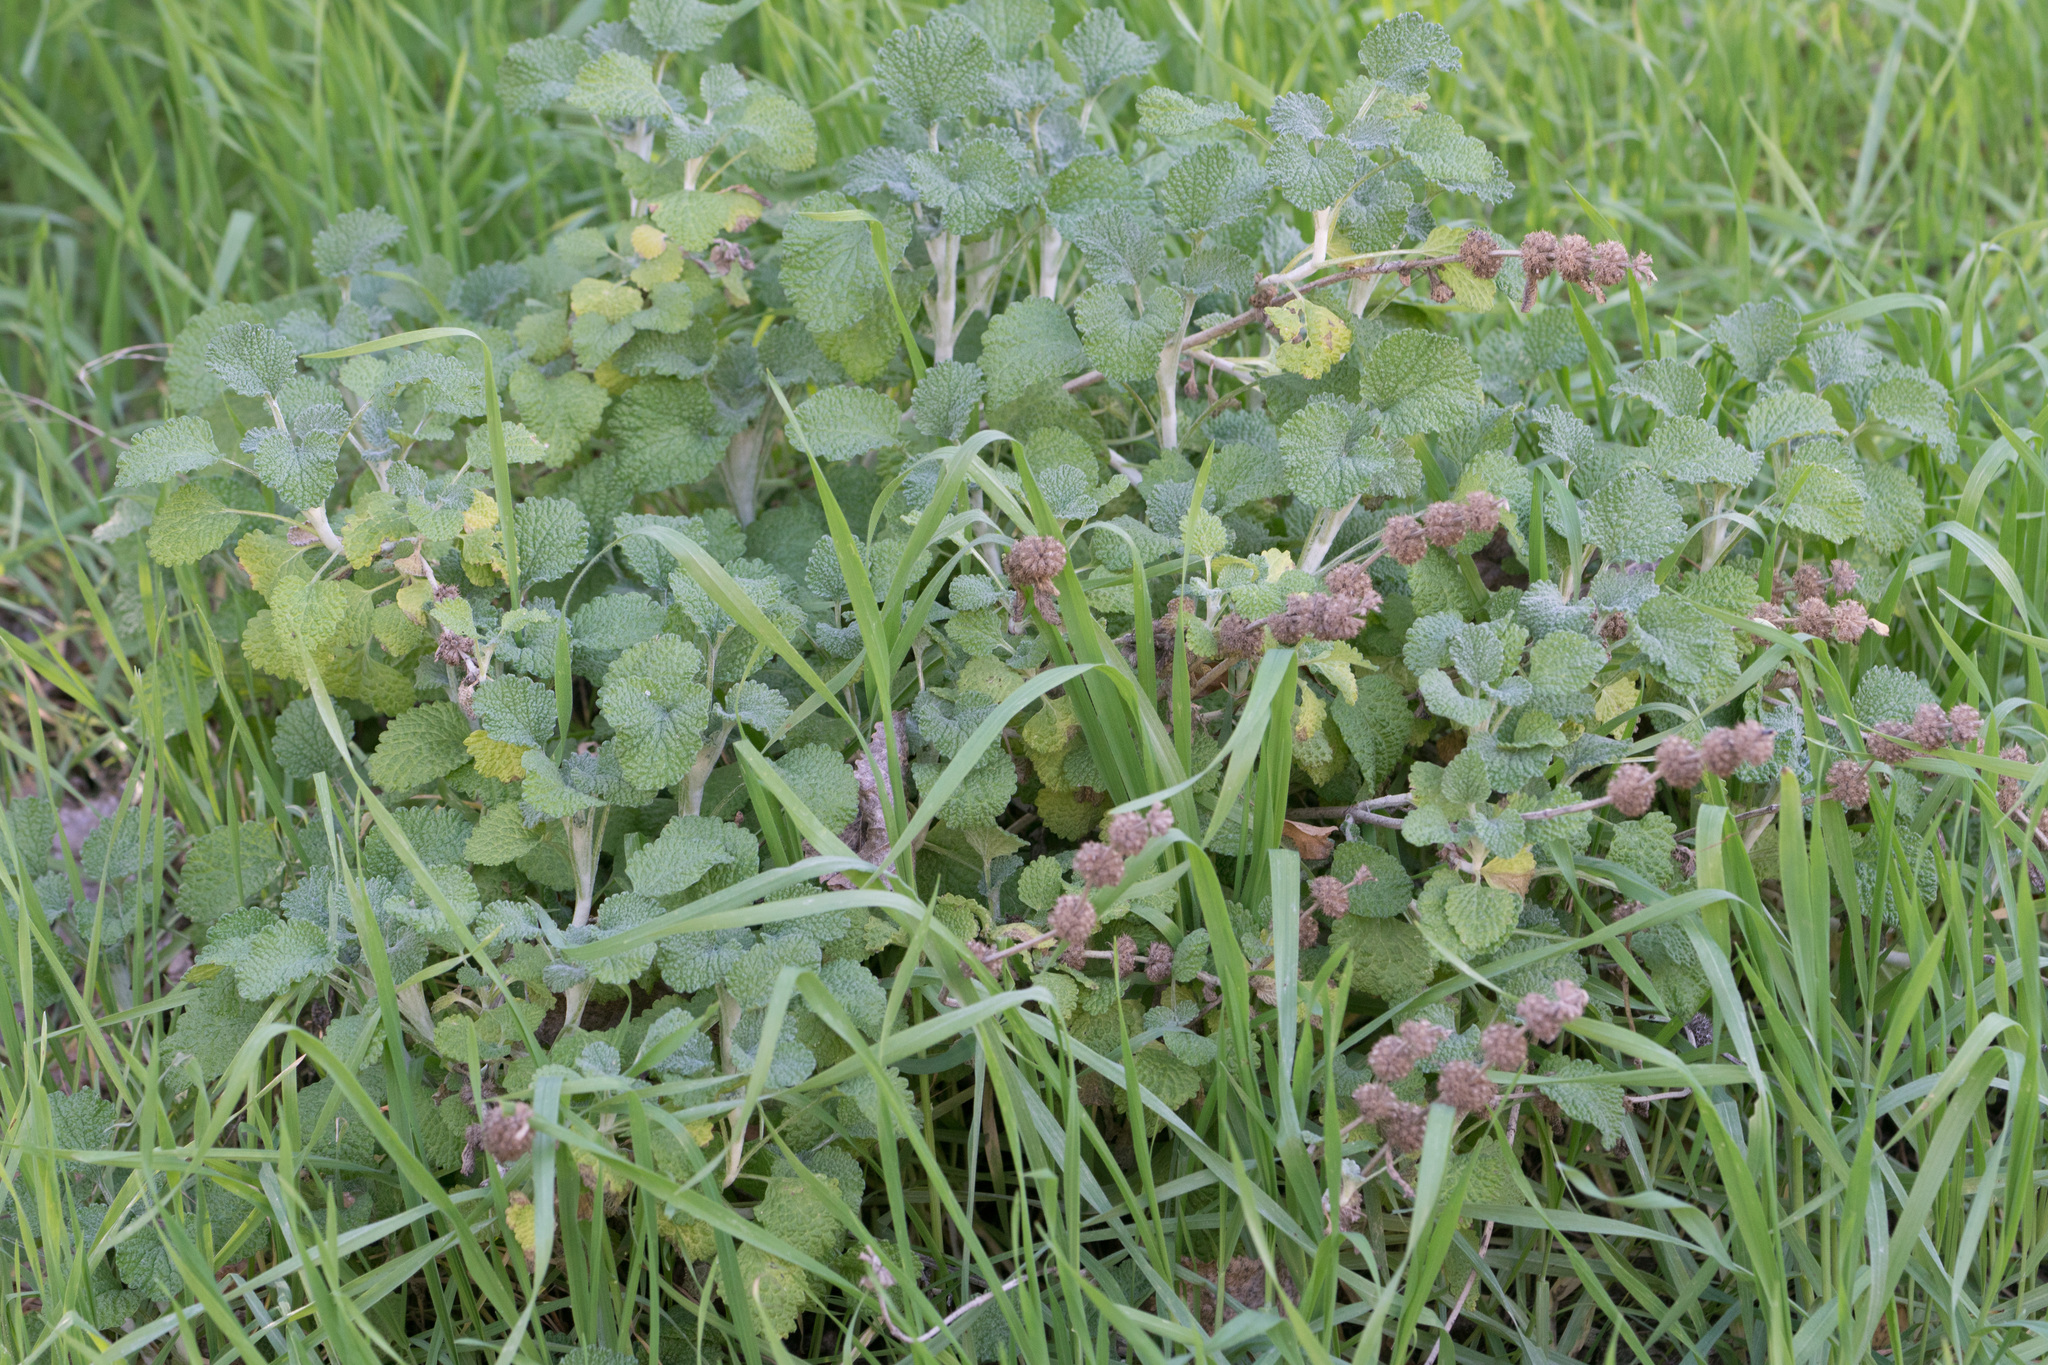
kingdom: Plantae
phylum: Tracheophyta
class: Magnoliopsida
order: Lamiales
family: Lamiaceae
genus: Marrubium
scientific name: Marrubium vulgare
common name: Horehound
